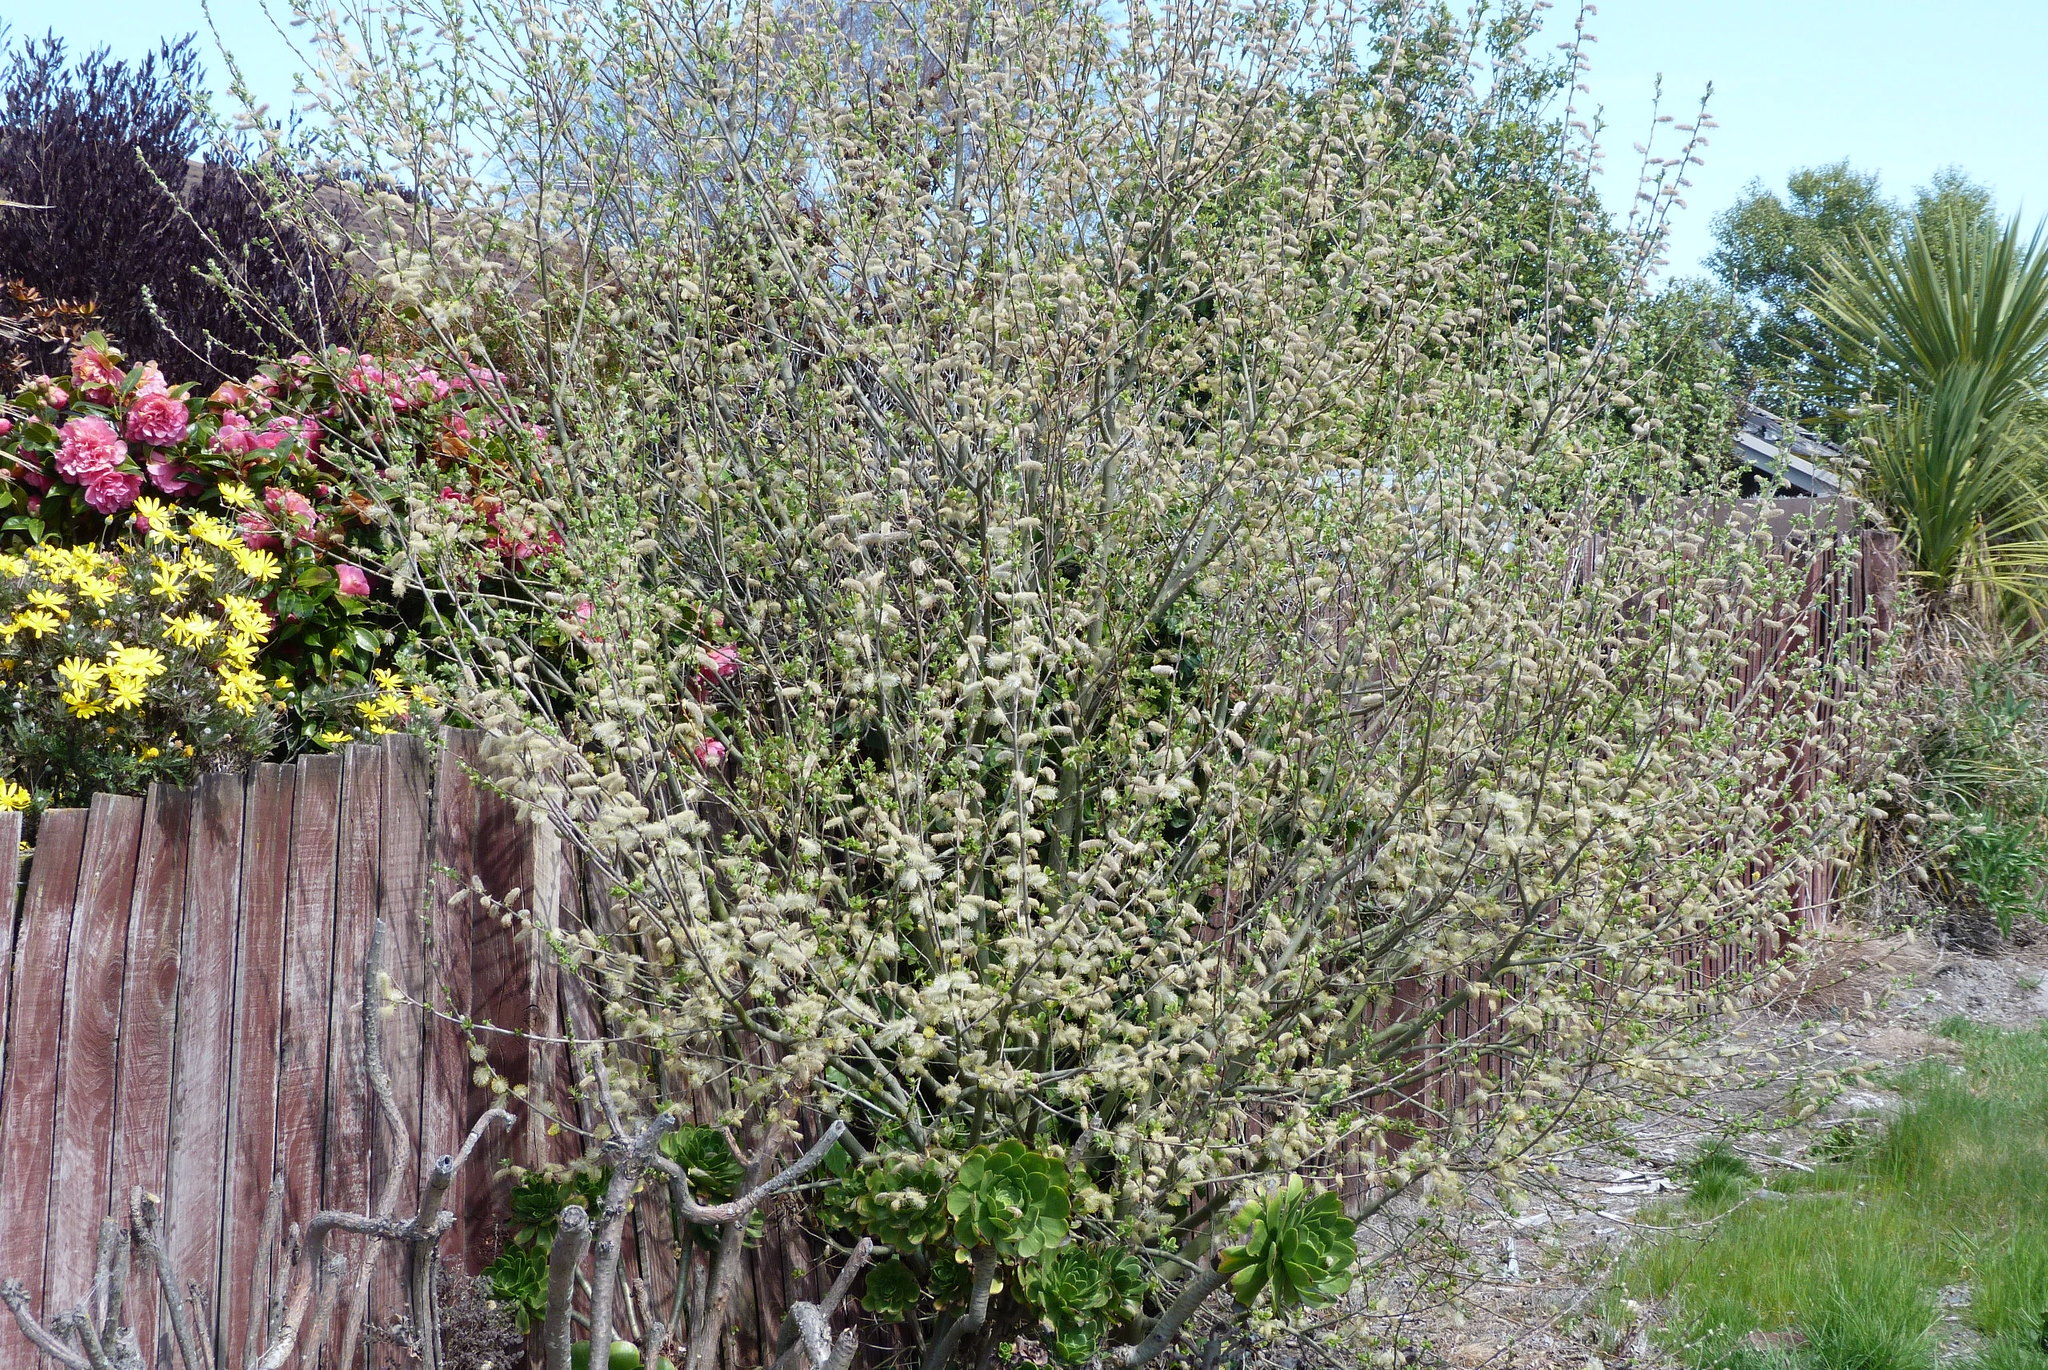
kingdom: Plantae
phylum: Tracheophyta
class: Magnoliopsida
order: Malpighiales
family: Salicaceae
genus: Salix
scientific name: Salix cinerea
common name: Common sallow
